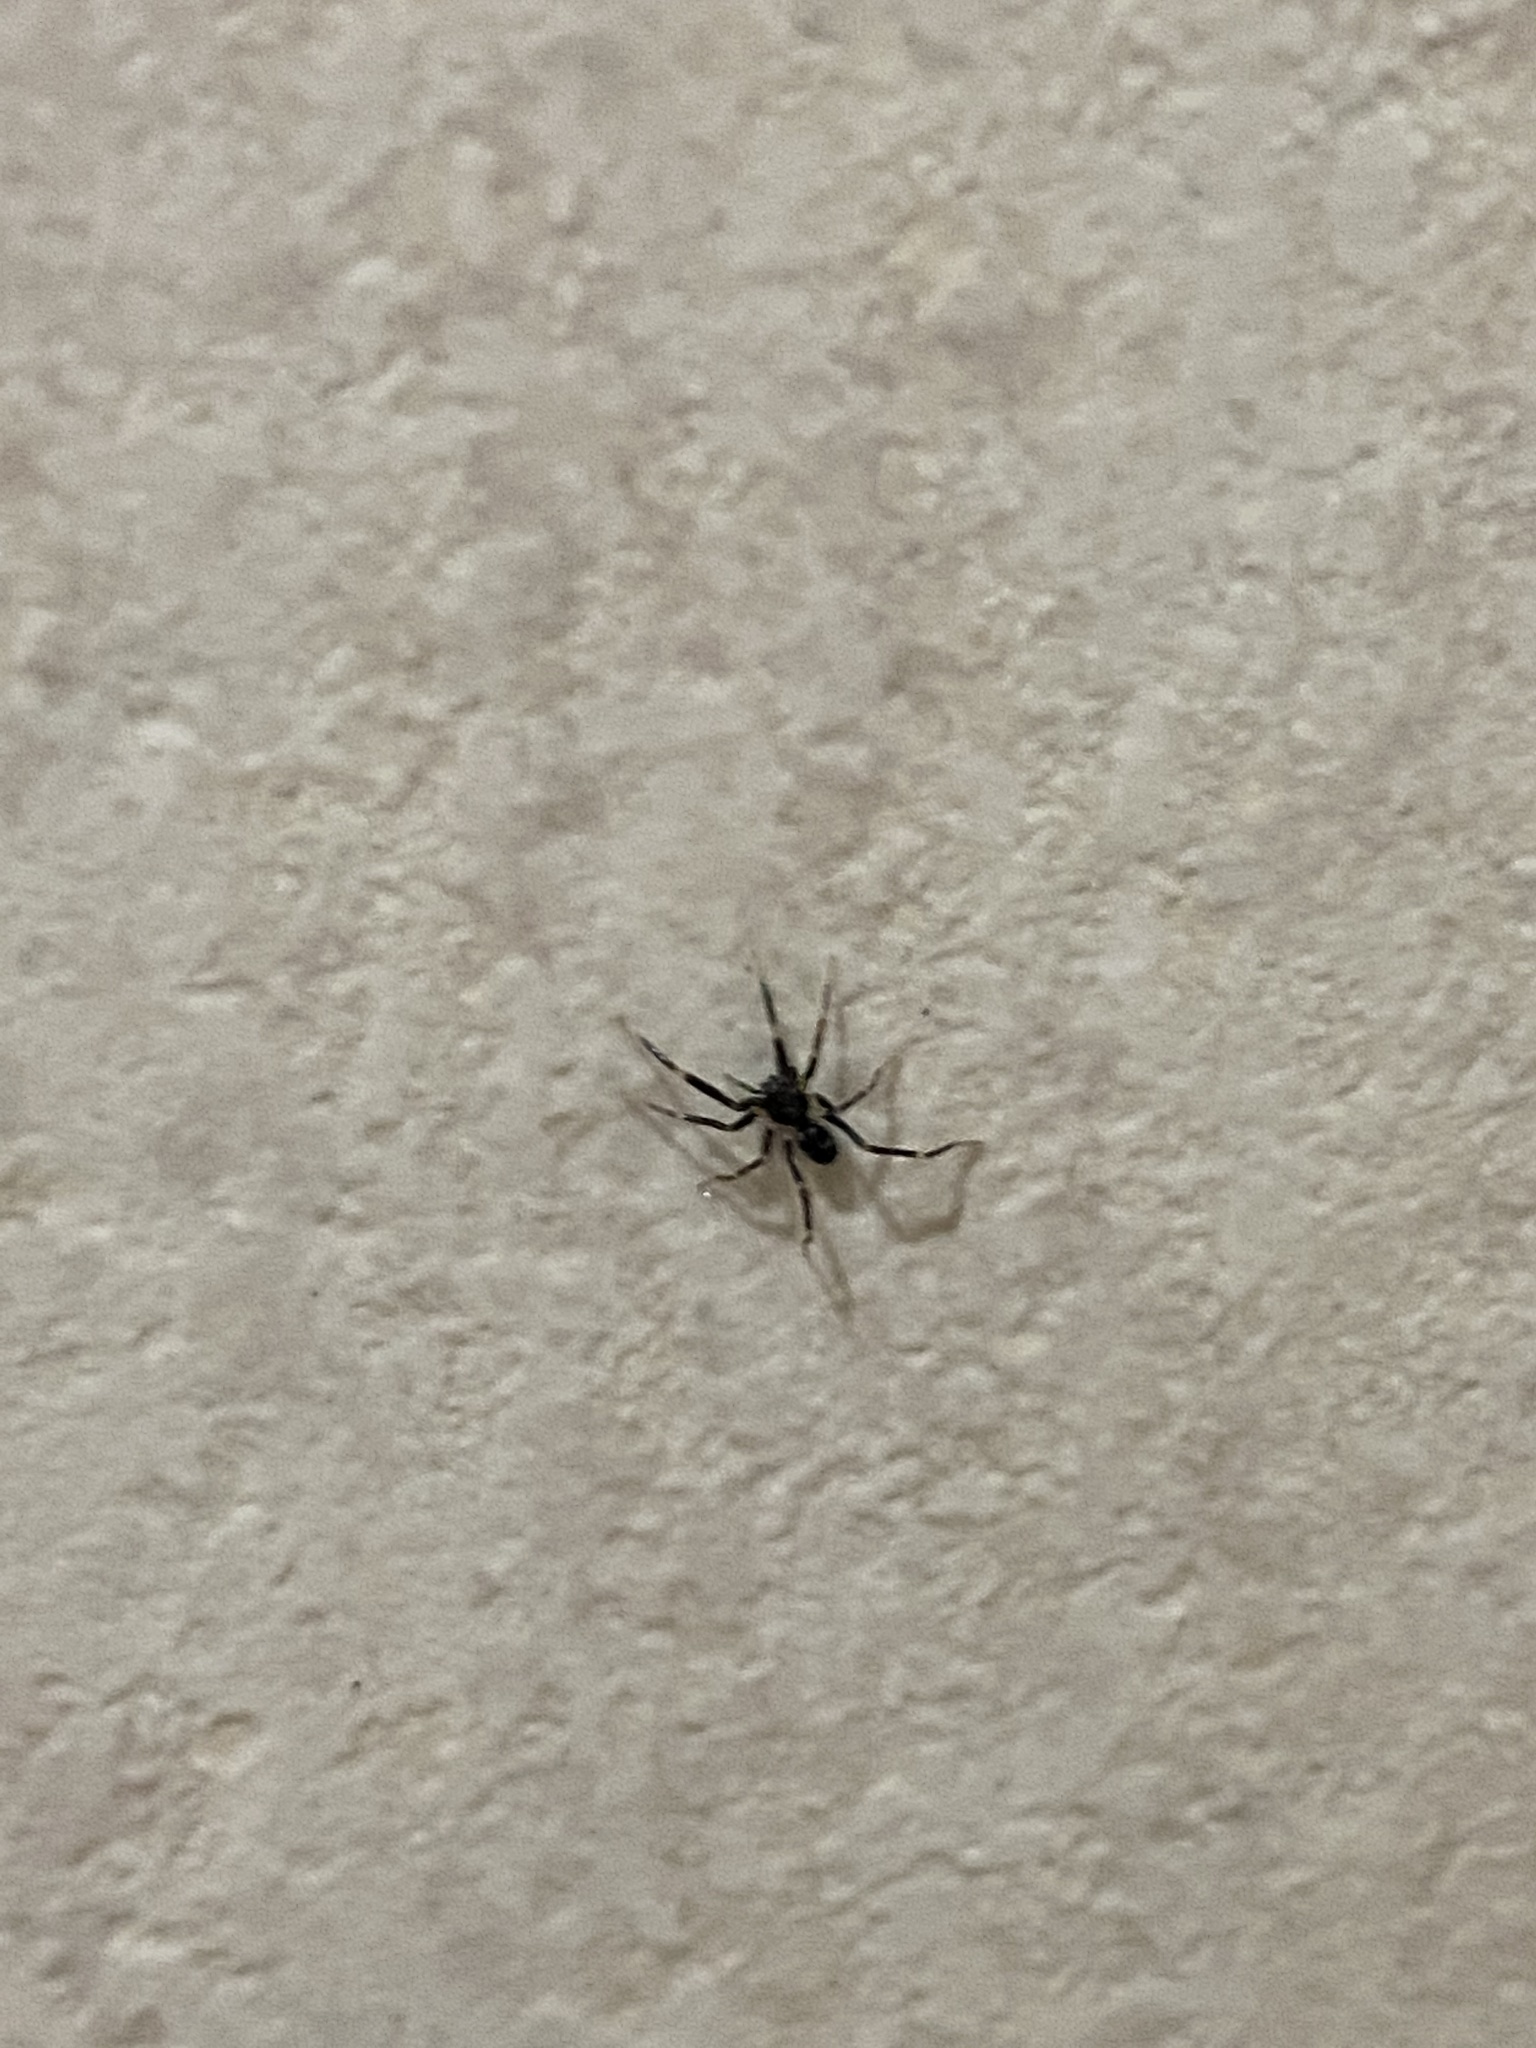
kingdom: Animalia
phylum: Arthropoda
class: Arachnida
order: Araneae
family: Phrurolithidae
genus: Liophrurillus
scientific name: Liophrurillus flavitarsis
